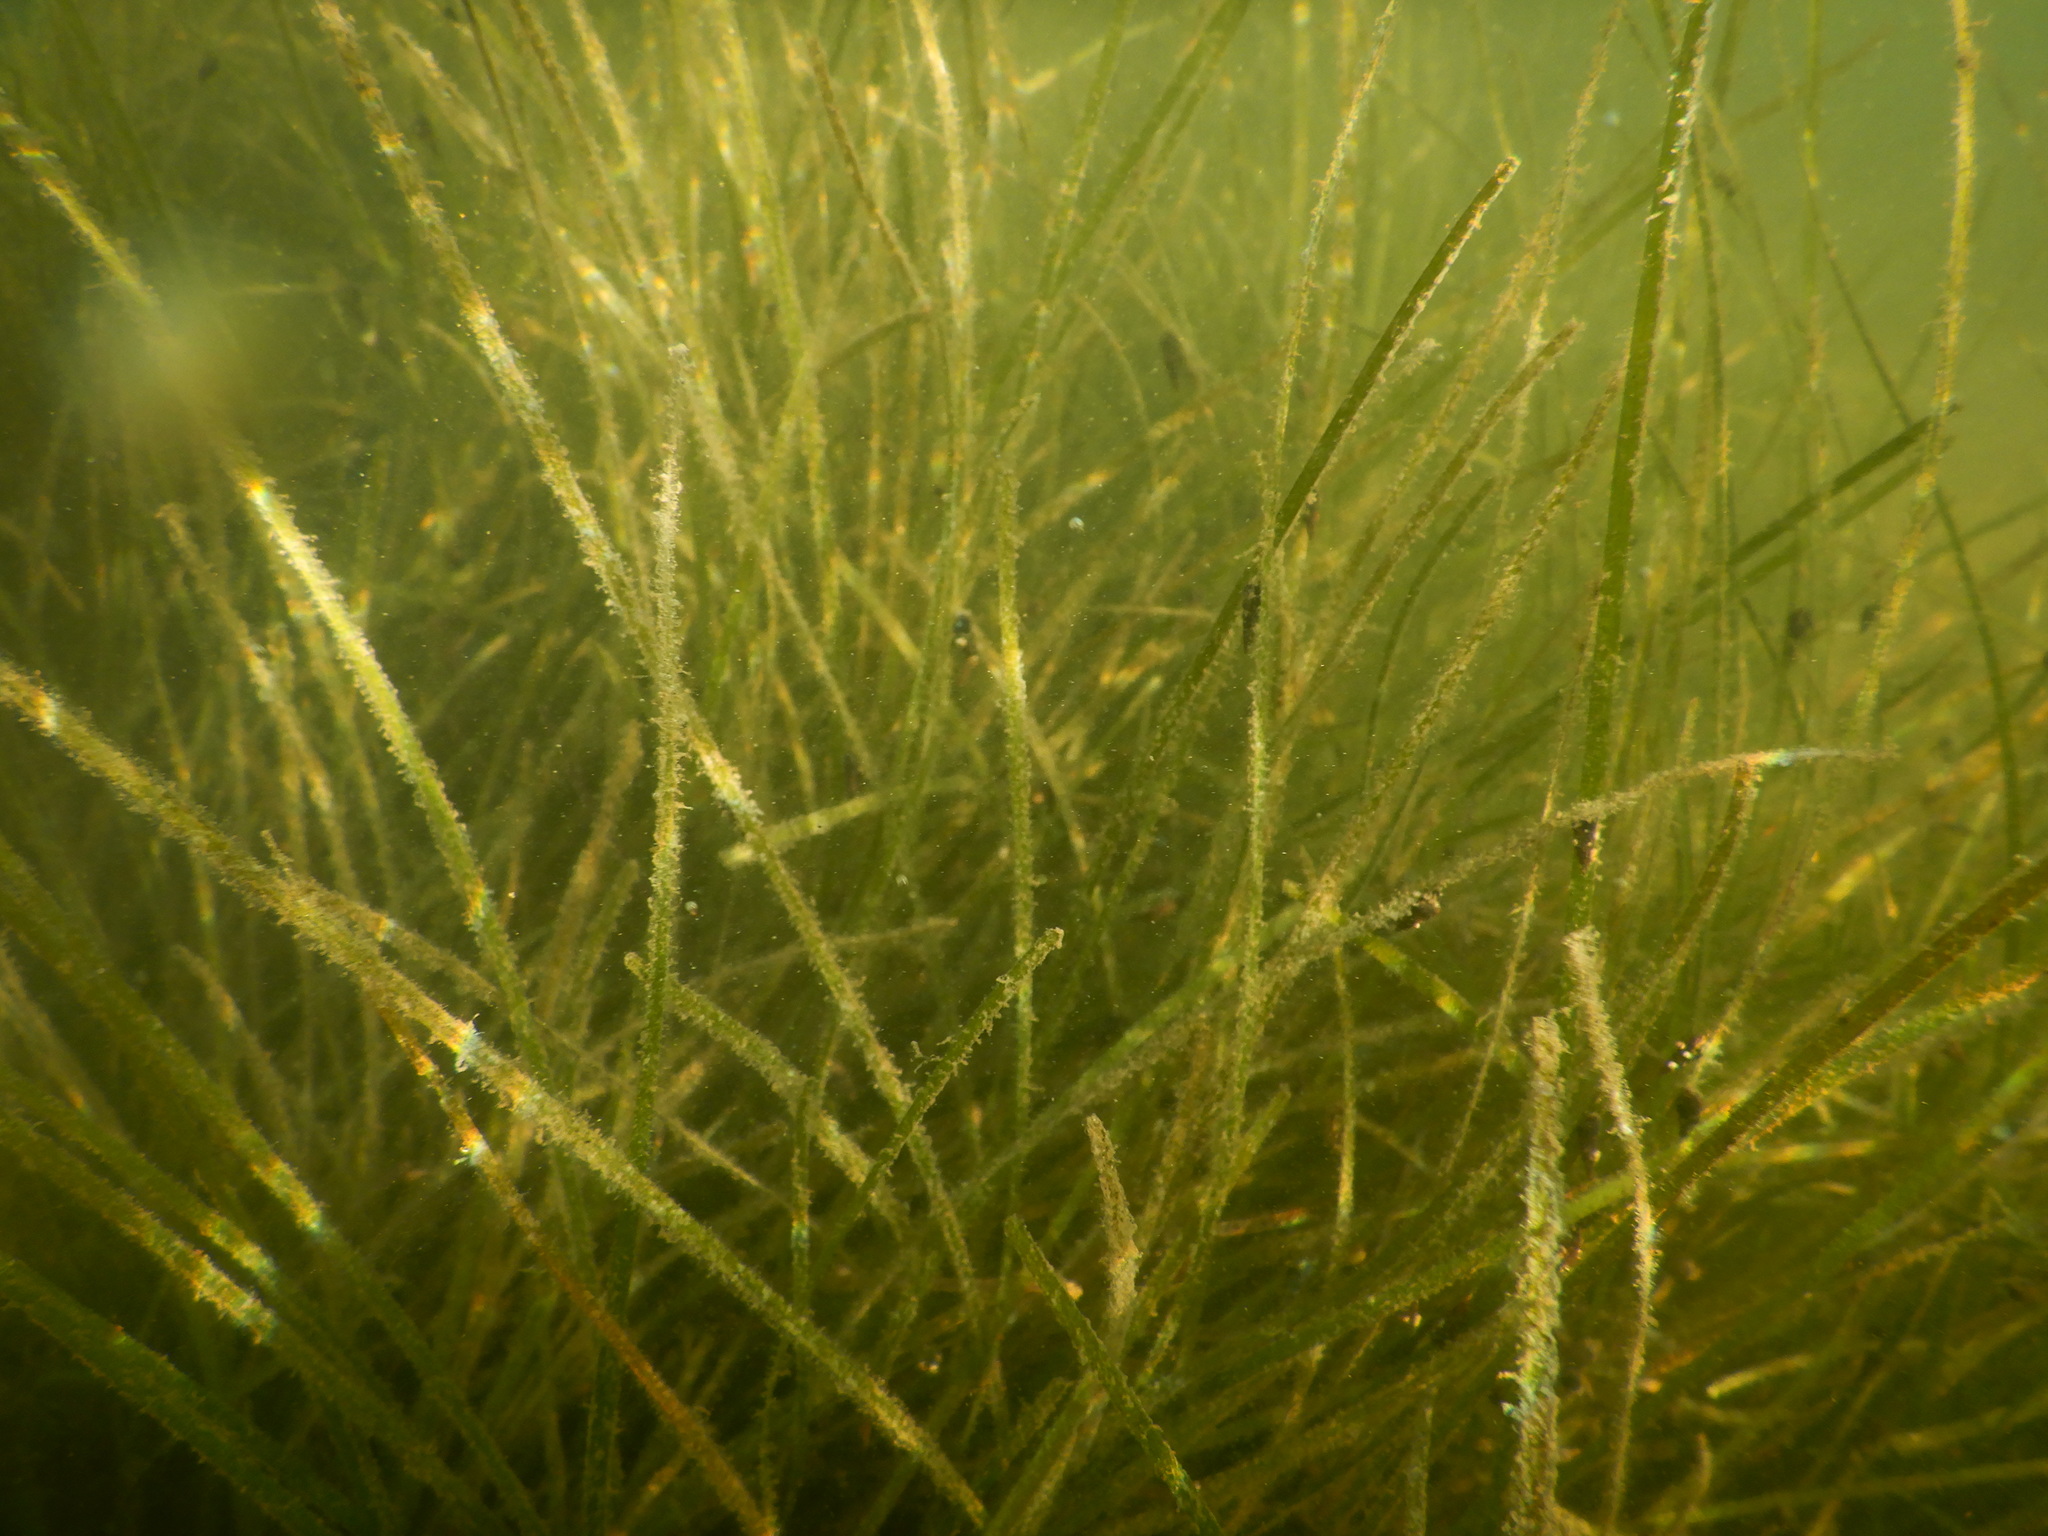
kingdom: Plantae
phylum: Tracheophyta
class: Liliopsida
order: Alismatales
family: Zosteraceae
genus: Zostera
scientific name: Zostera noltii
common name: Dwarf eelgrass
